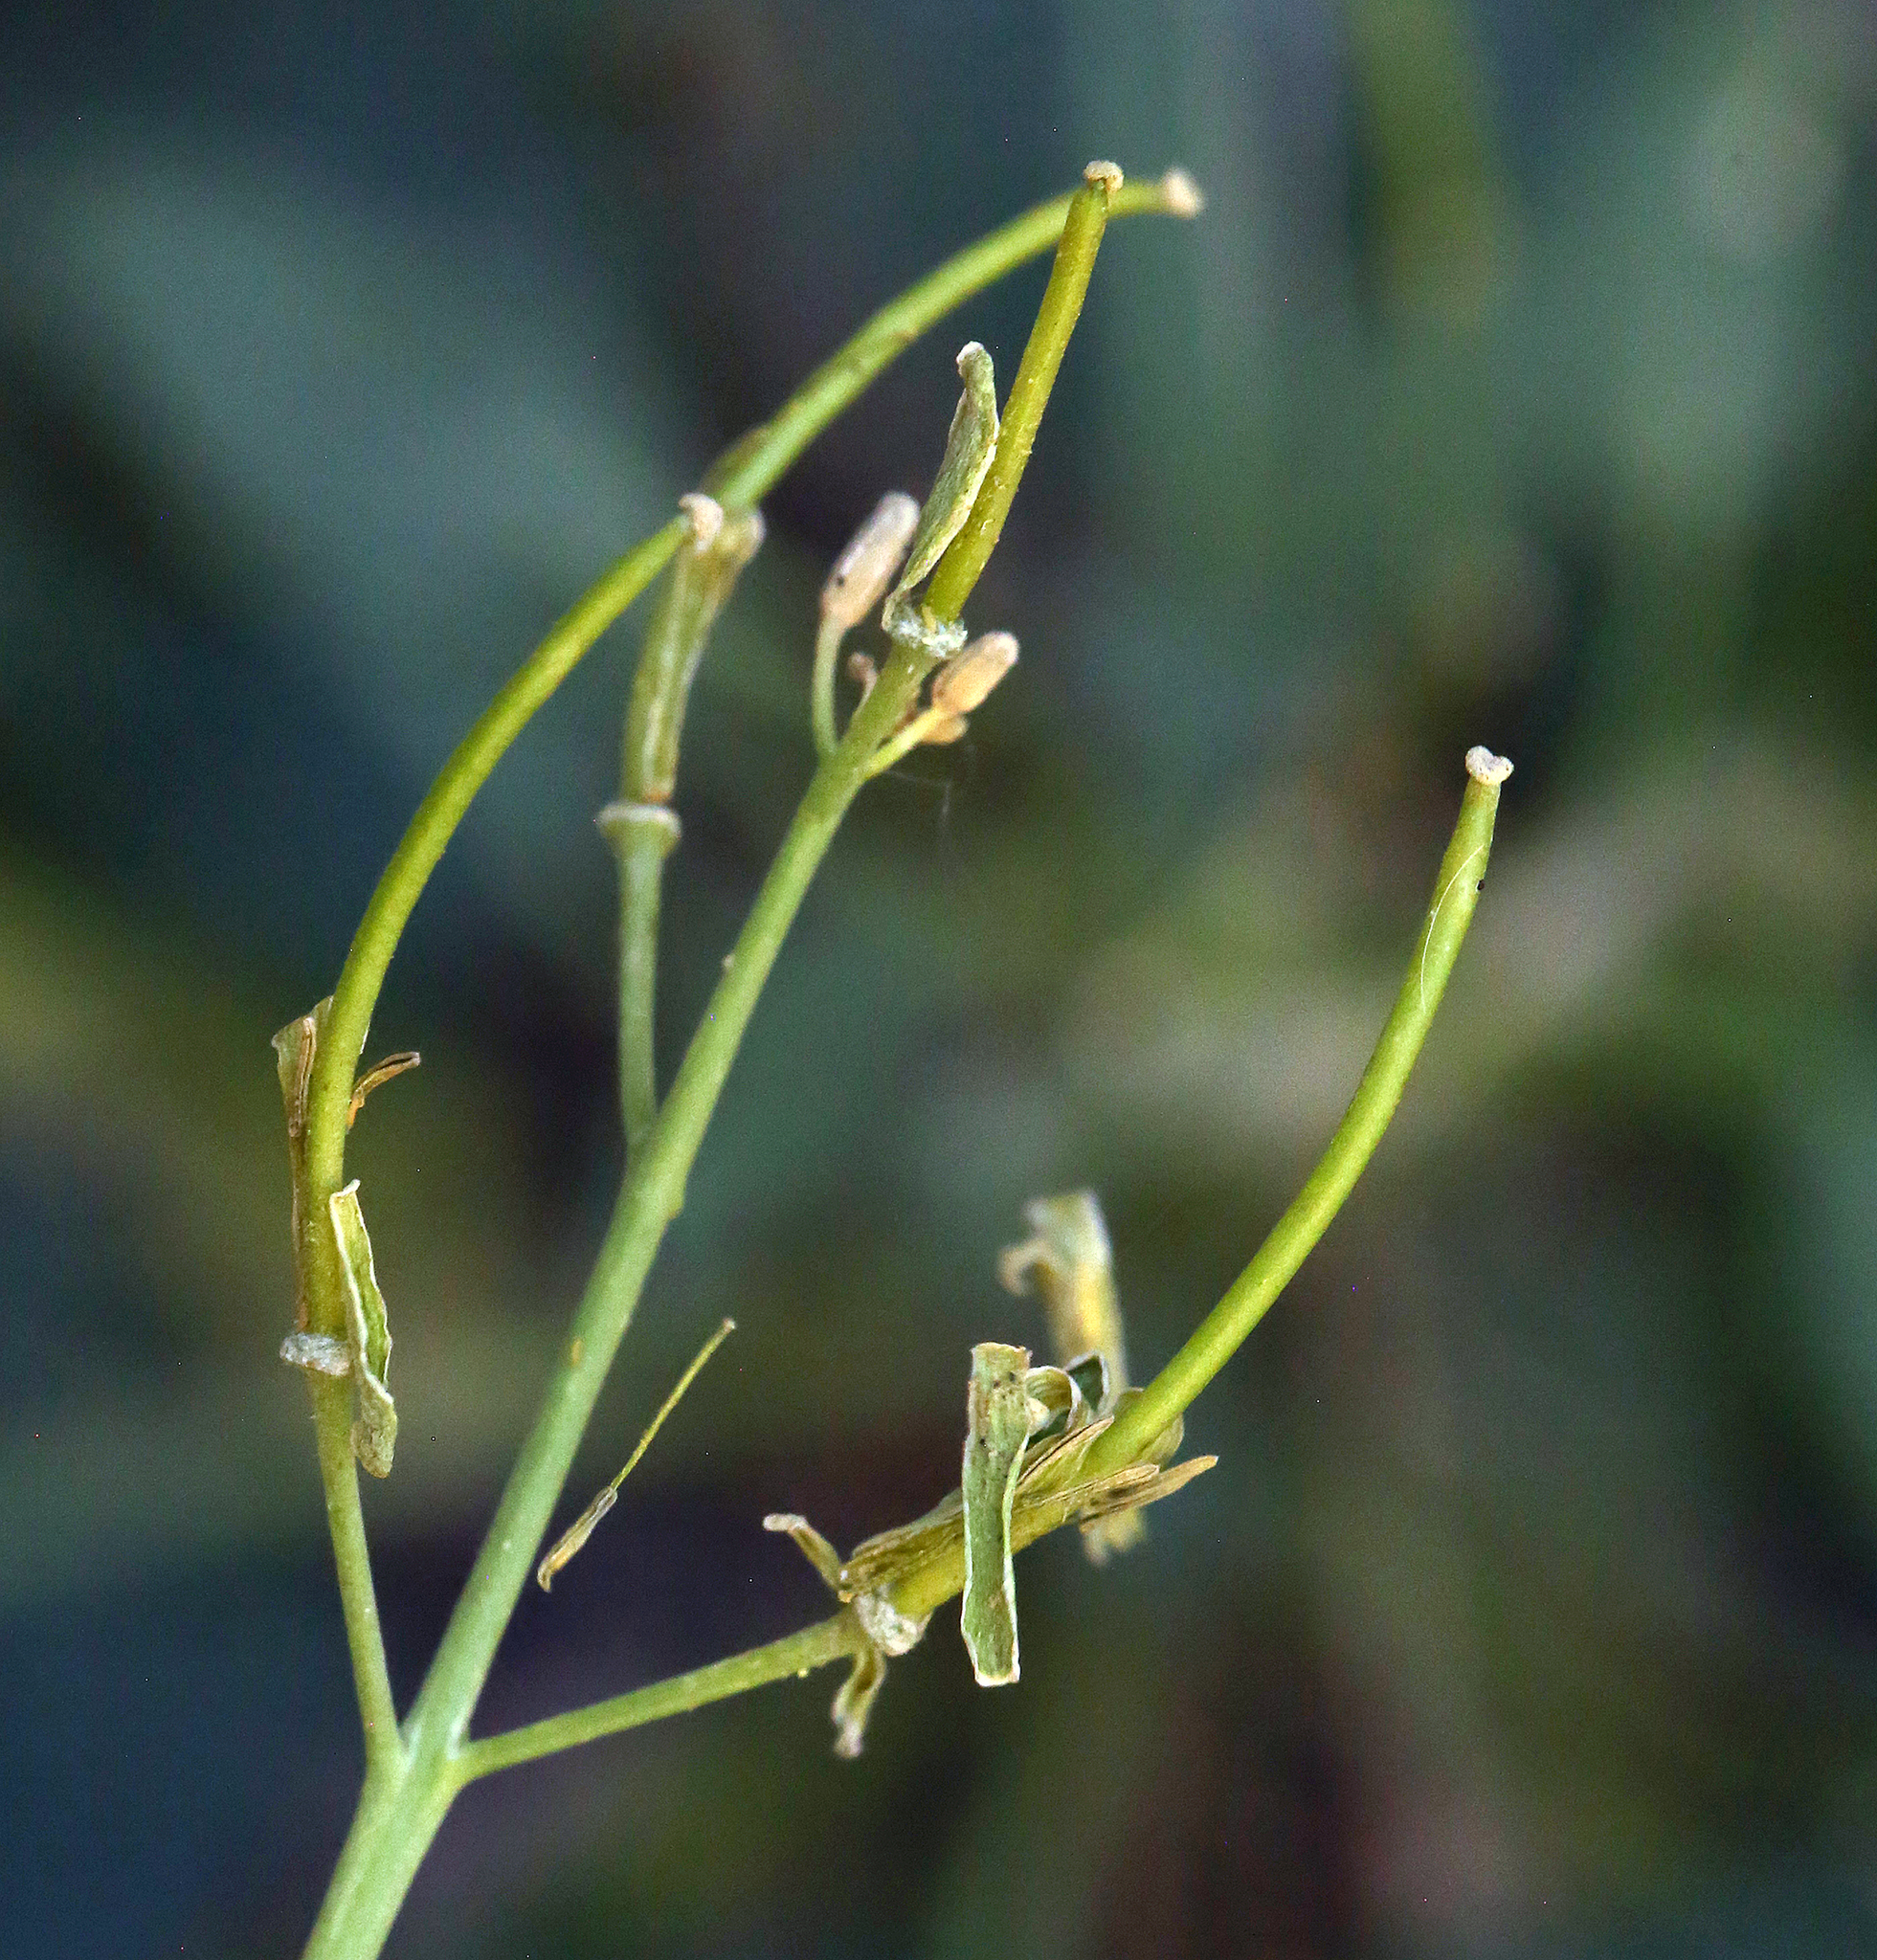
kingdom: Plantae
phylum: Tracheophyta
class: Magnoliopsida
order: Brassicales
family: Brassicaceae
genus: Streptanthus
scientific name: Streptanthus glaucus
